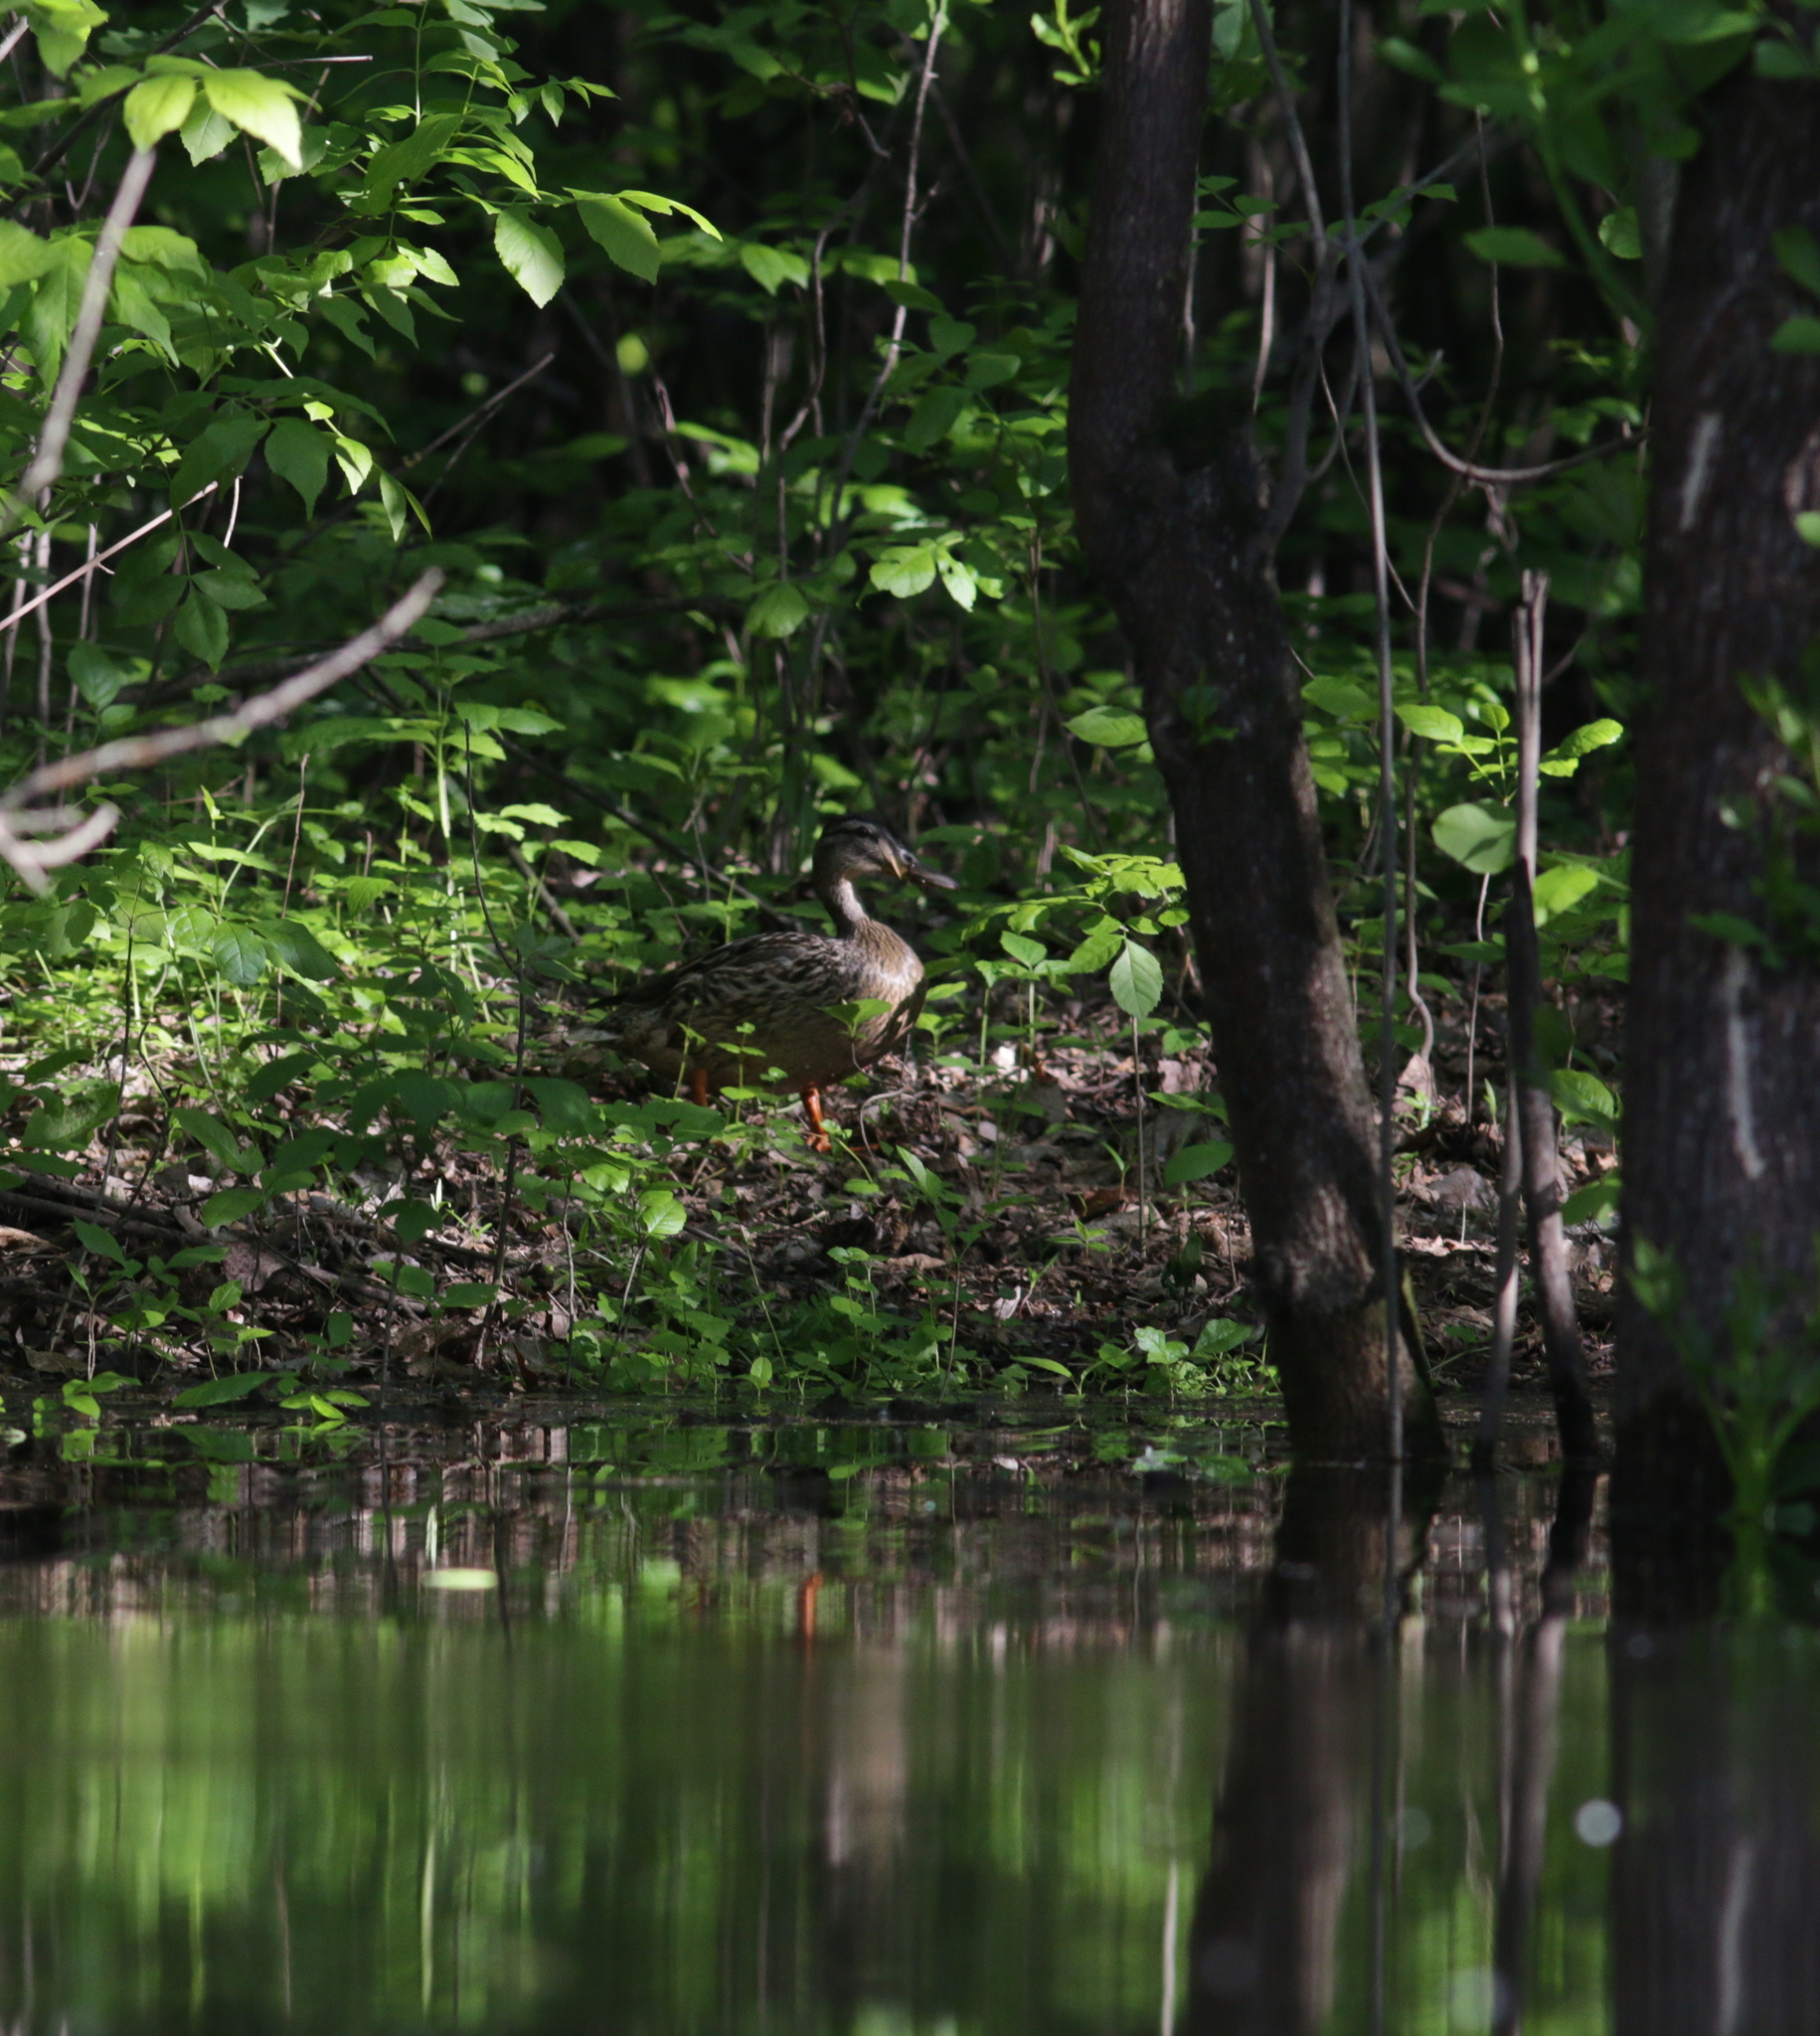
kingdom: Animalia
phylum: Chordata
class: Aves
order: Anseriformes
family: Anatidae
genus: Anas
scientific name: Anas platyrhynchos
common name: Mallard
